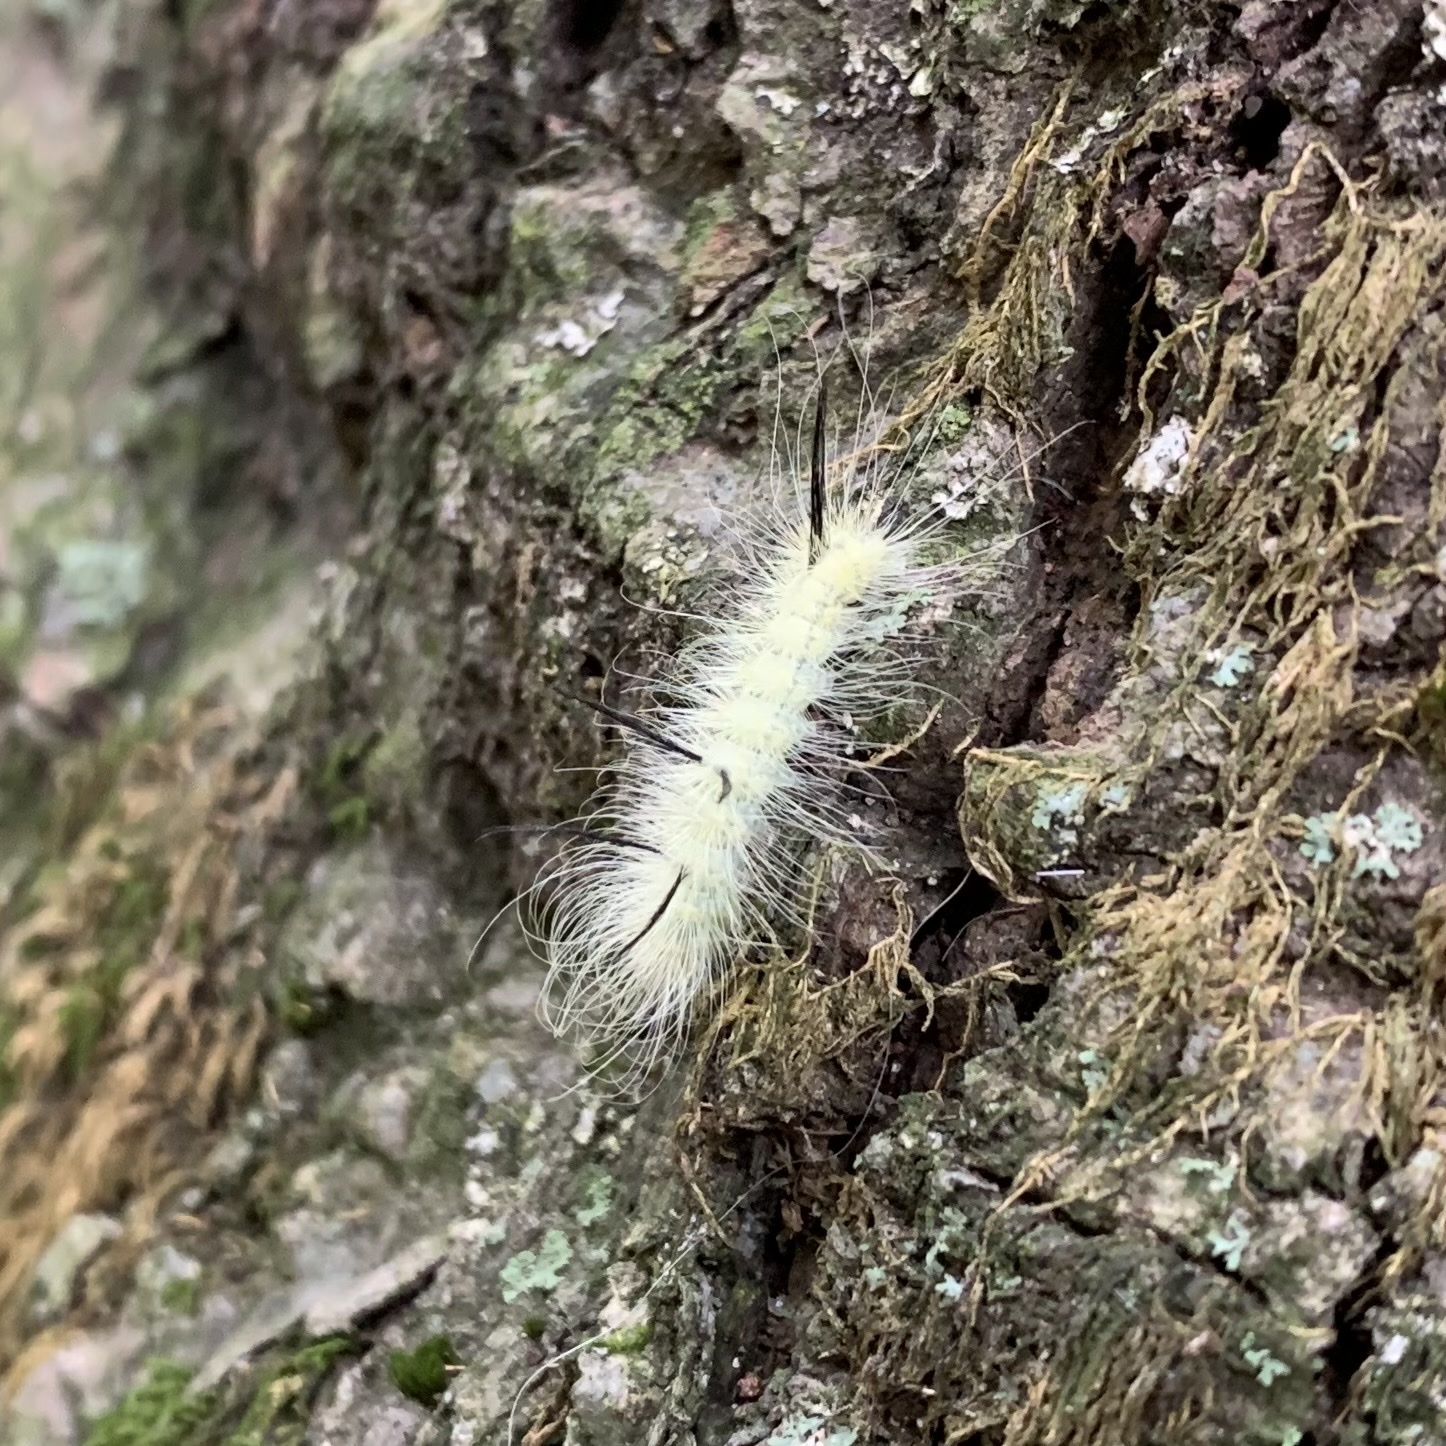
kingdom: Animalia
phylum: Arthropoda
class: Insecta
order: Lepidoptera
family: Noctuidae
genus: Acronicta
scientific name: Acronicta americana
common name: American dagger
